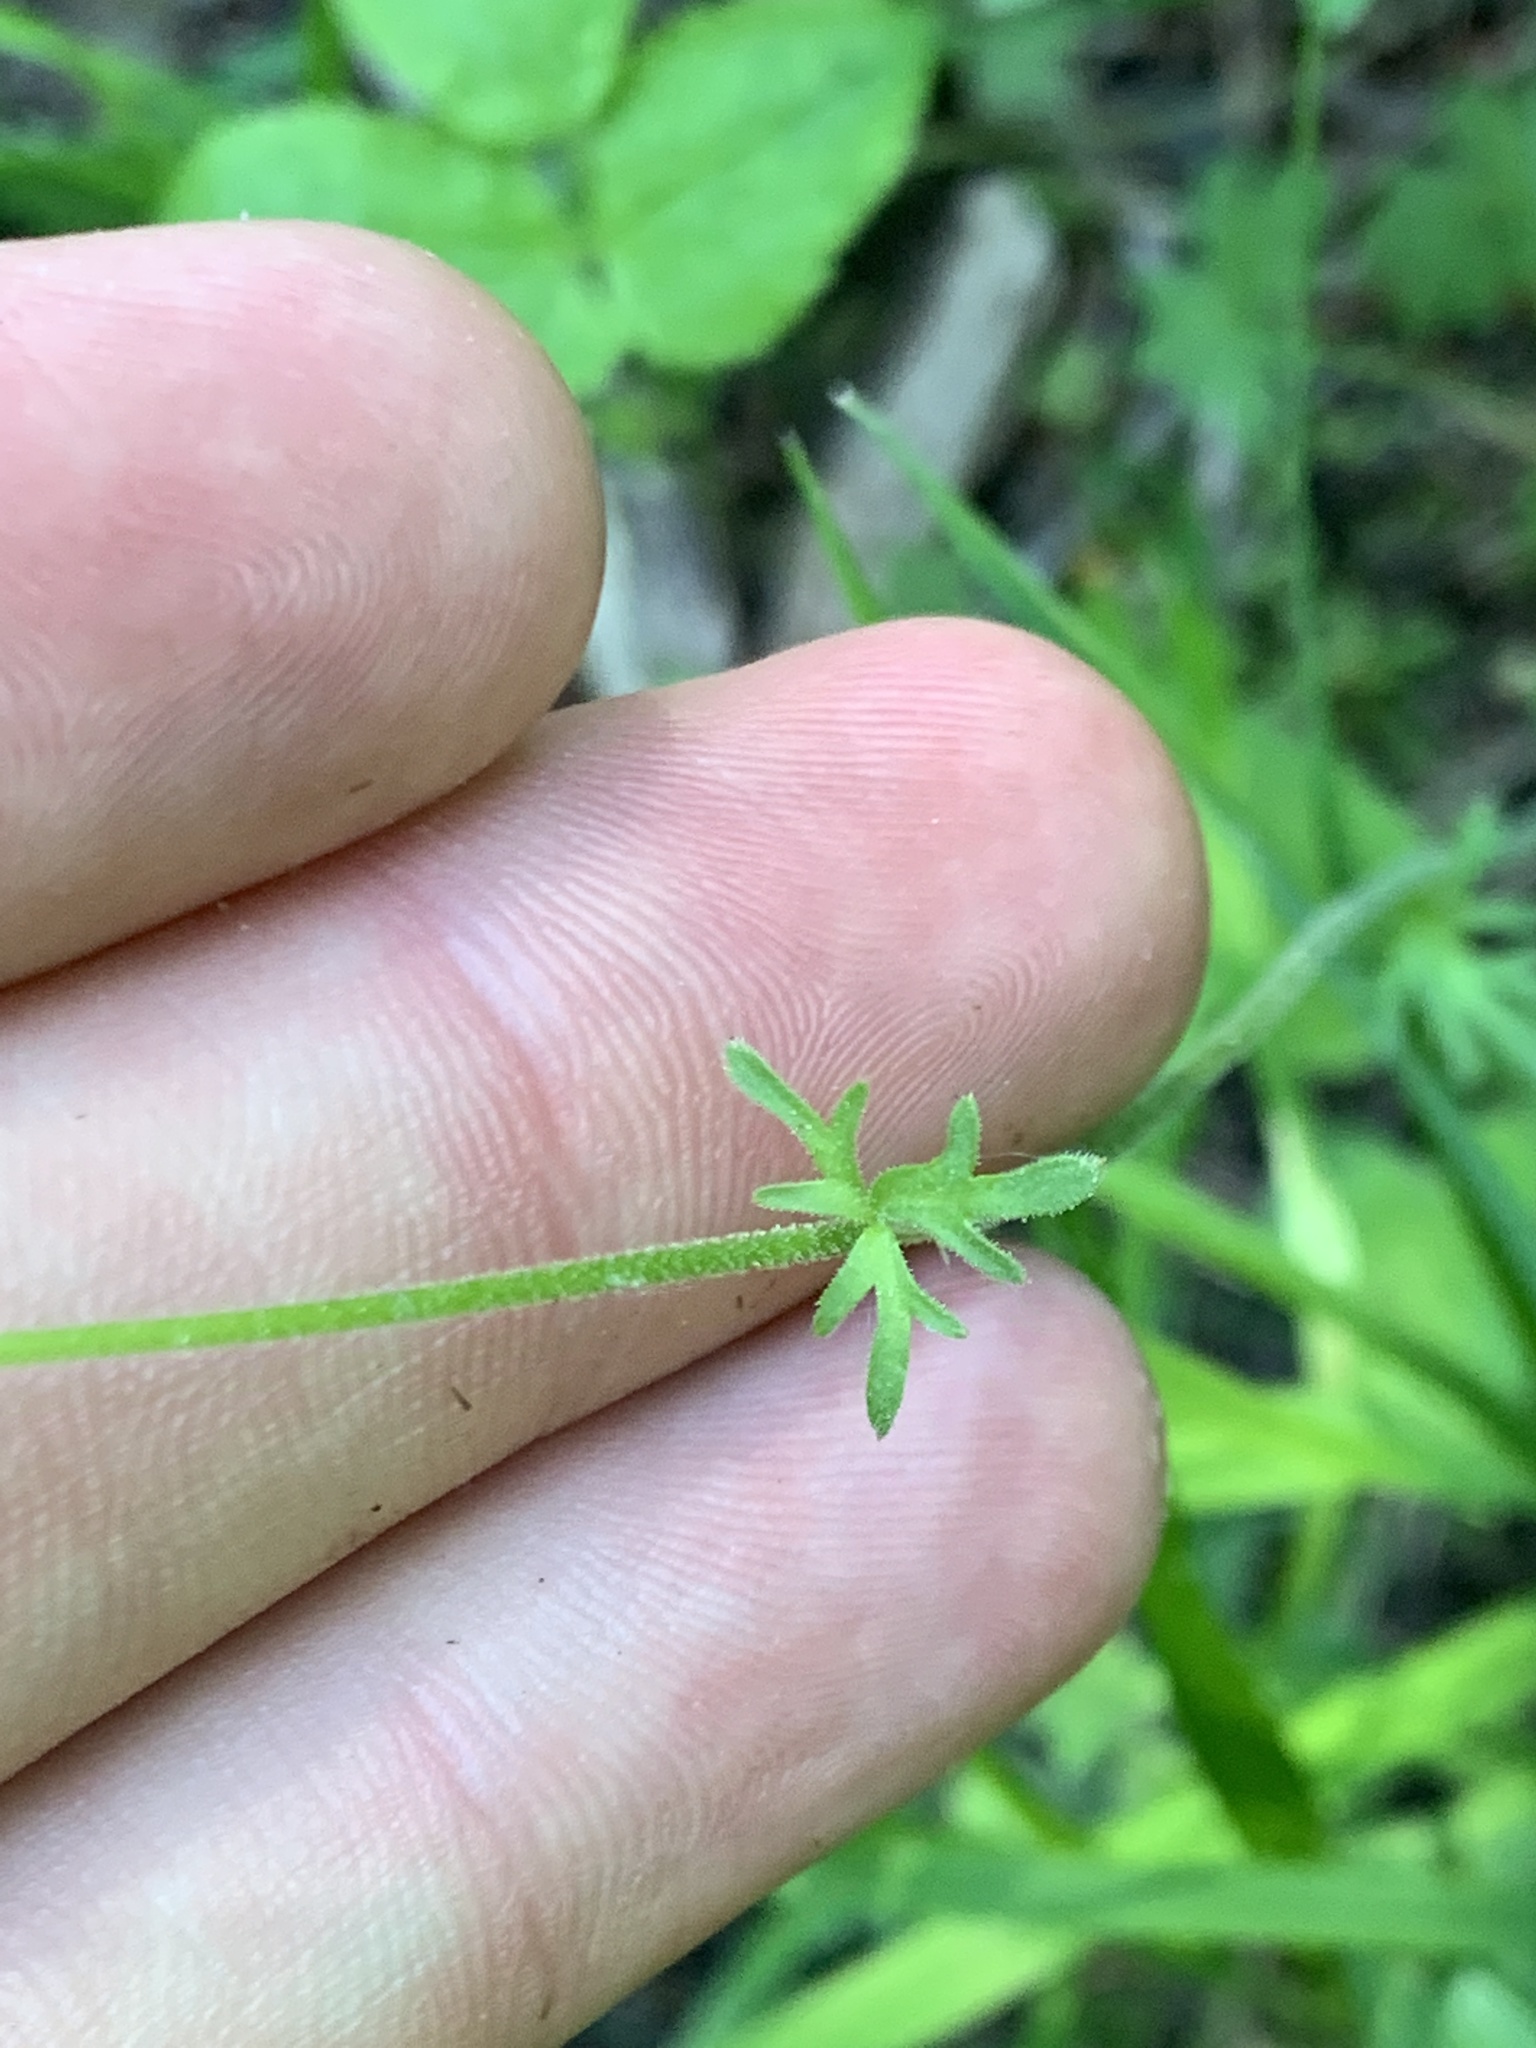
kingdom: Plantae
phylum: Tracheophyta
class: Magnoliopsida
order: Saxifragales
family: Saxifragaceae
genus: Lithophragma
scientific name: Lithophragma parviflorum
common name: Small-flowered fringe-cup
